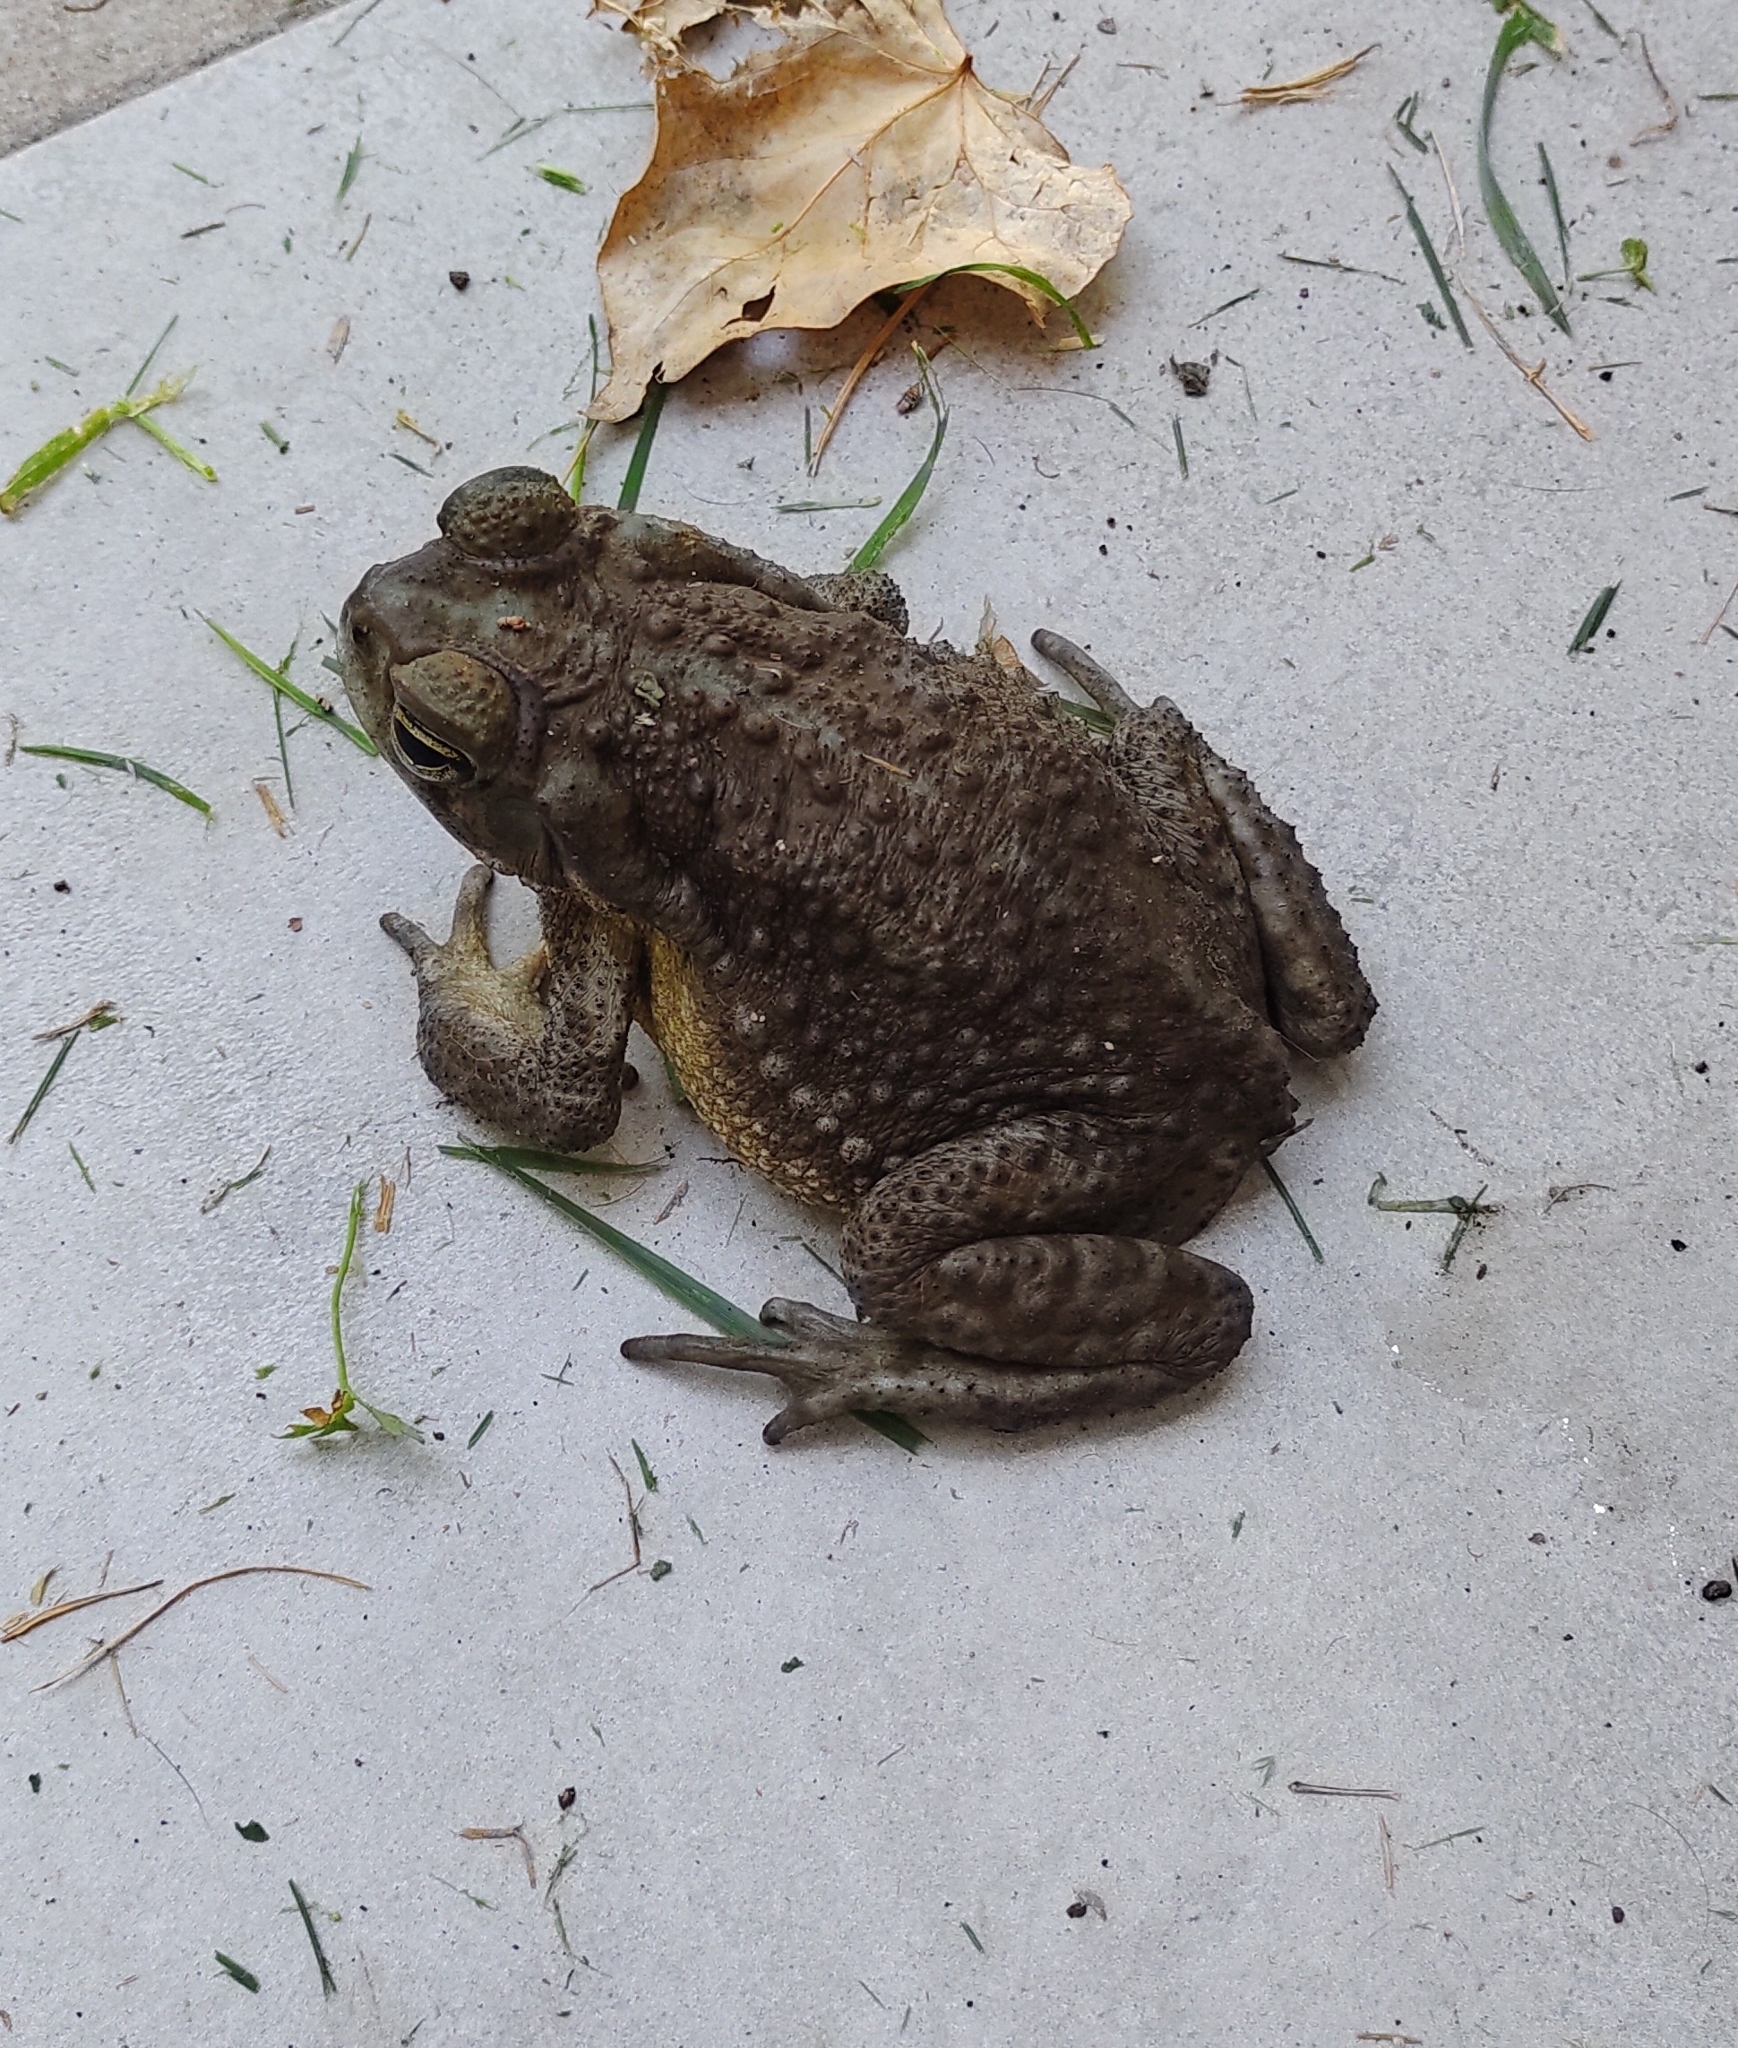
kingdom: Animalia
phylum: Chordata
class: Amphibia
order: Anura
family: Bufonidae
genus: Rhinella
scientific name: Rhinella arenarum
